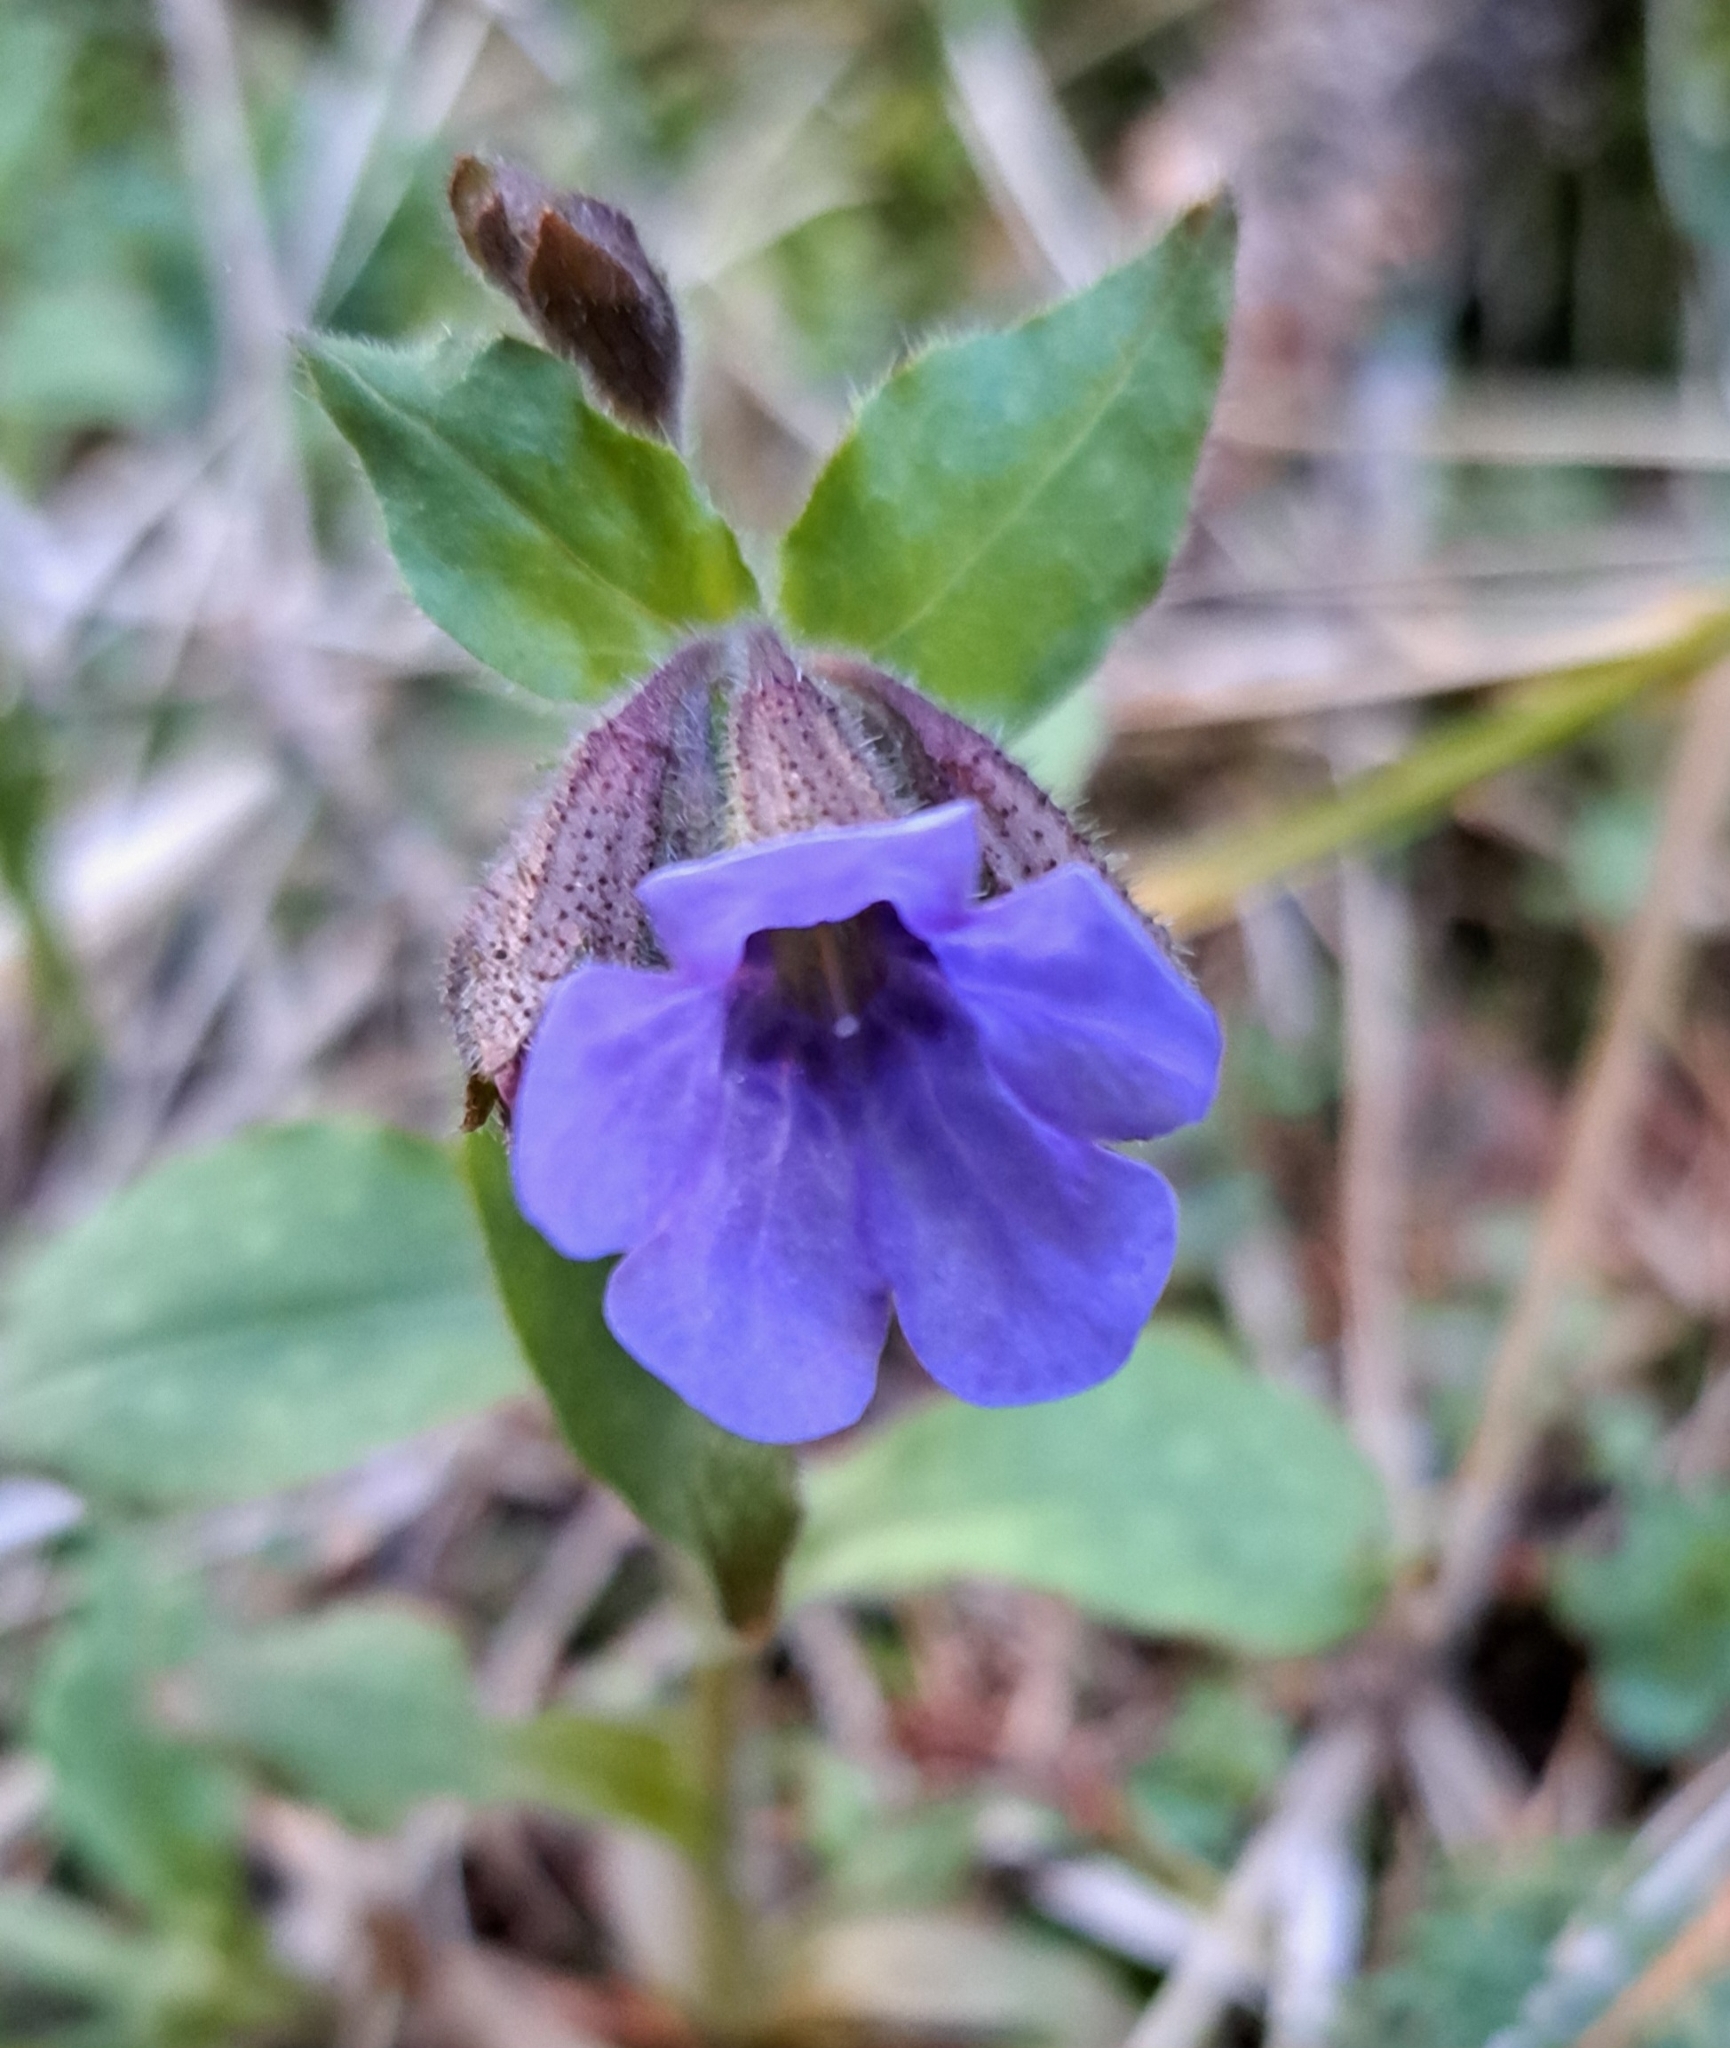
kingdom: Plantae
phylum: Tracheophyta
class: Magnoliopsida
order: Boraginales
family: Boraginaceae
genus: Pulmonaria
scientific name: Pulmonaria officinalis
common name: Lungwort
